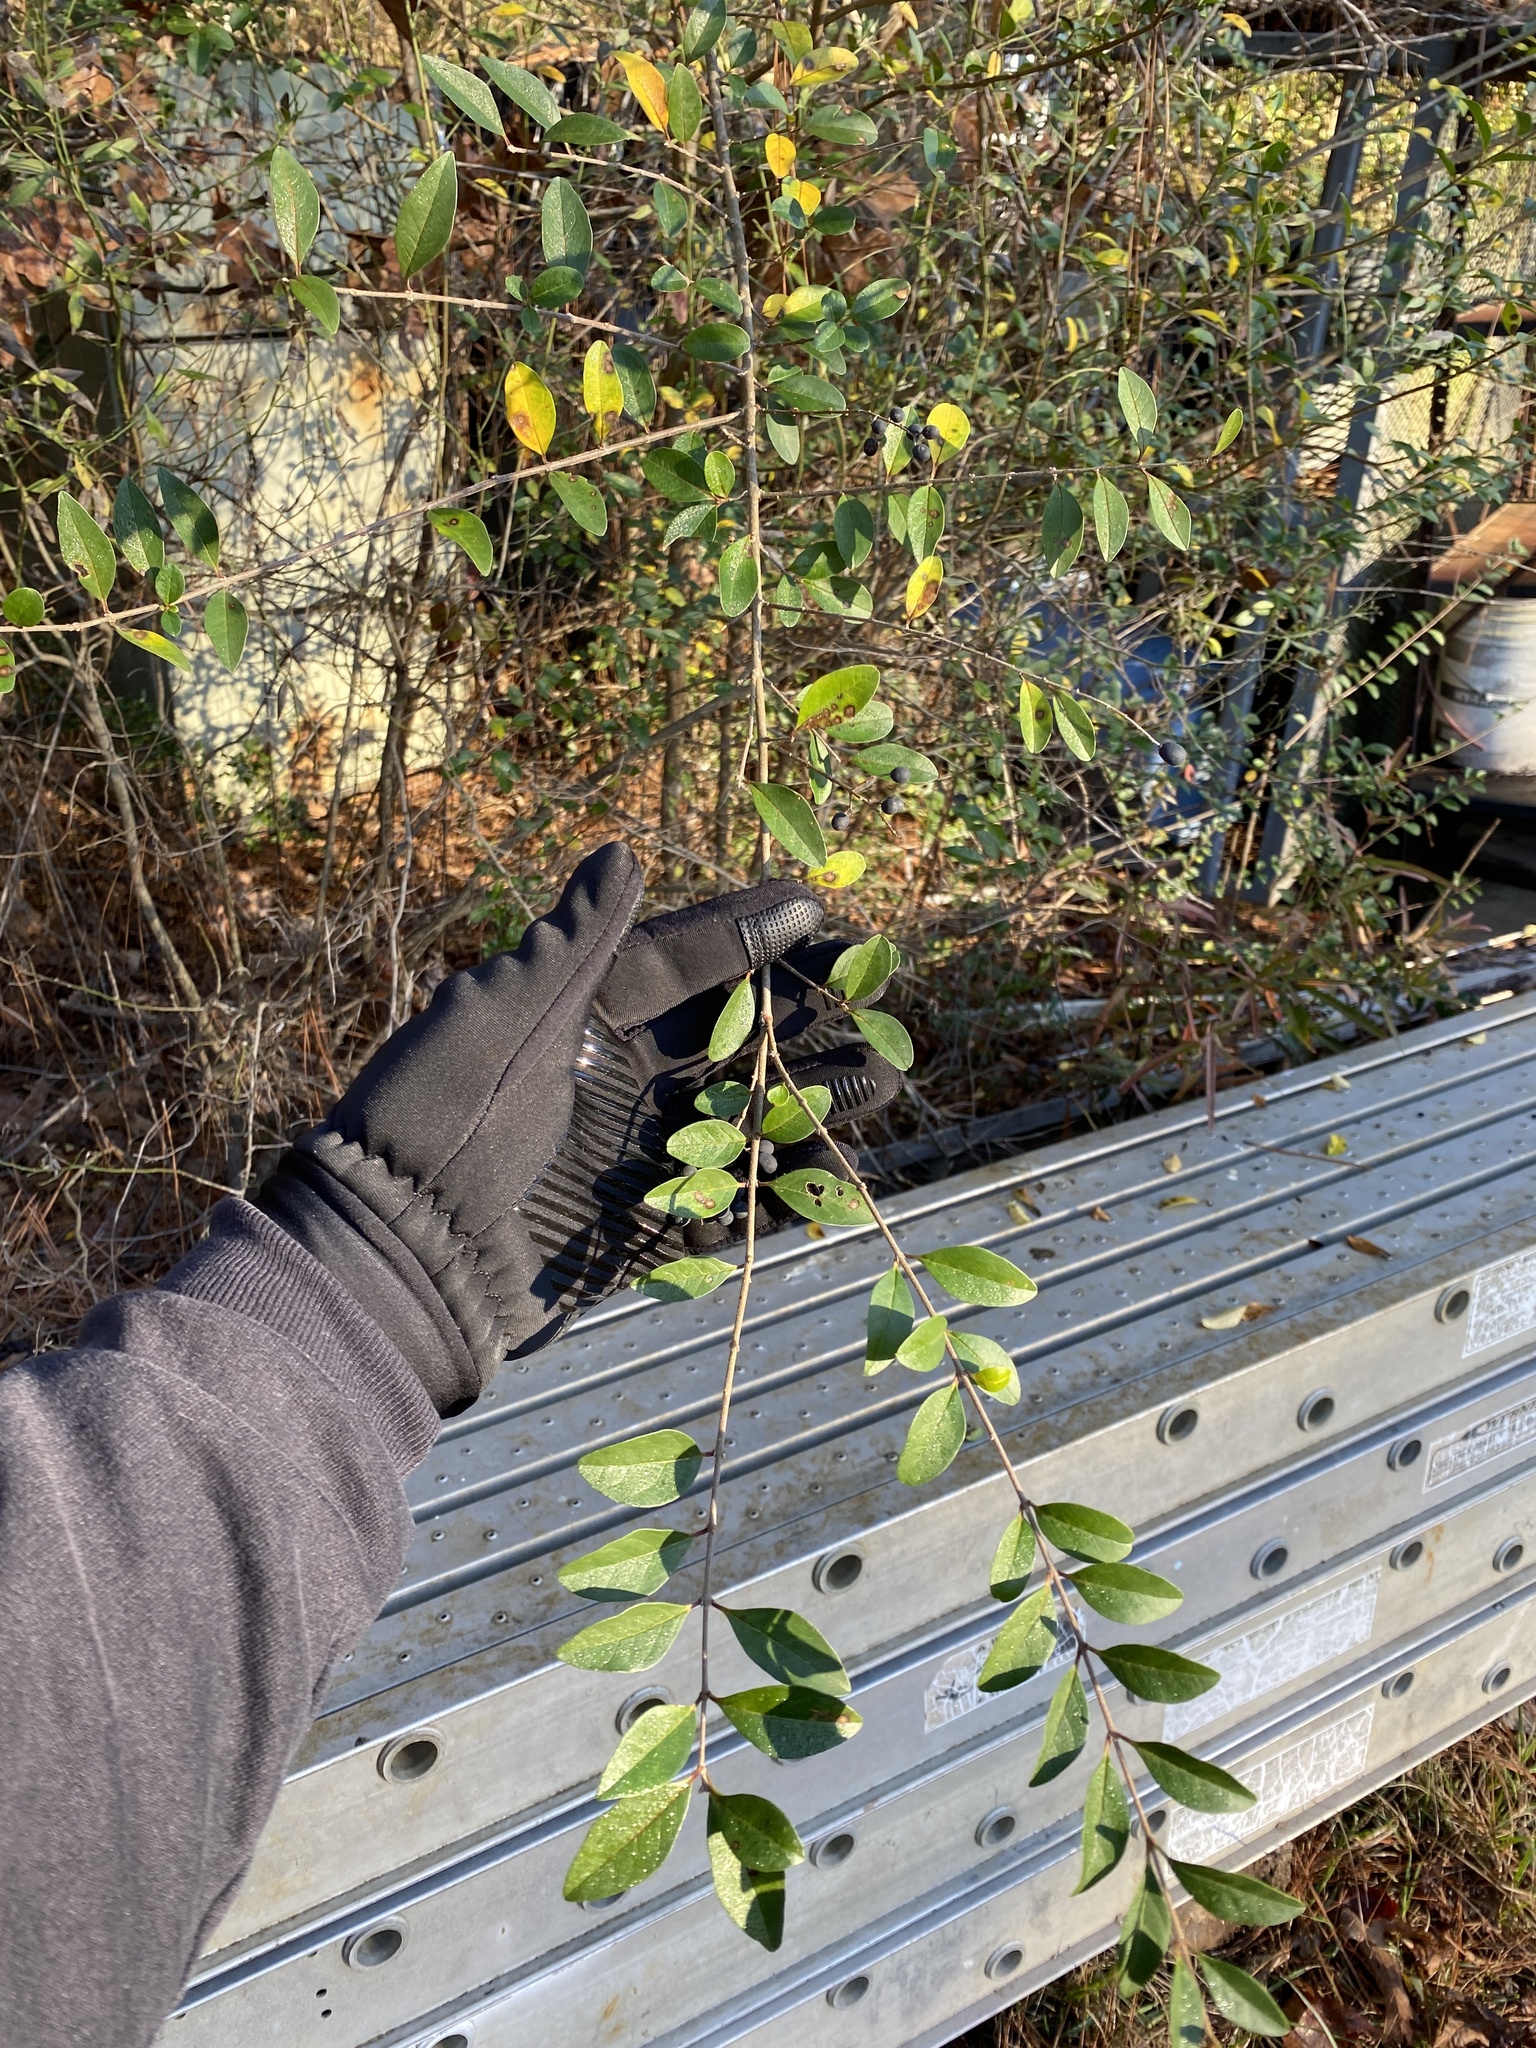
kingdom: Plantae
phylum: Tracheophyta
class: Magnoliopsida
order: Lamiales
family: Oleaceae
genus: Ligustrum
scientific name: Ligustrum sinense
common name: Chinese privet
